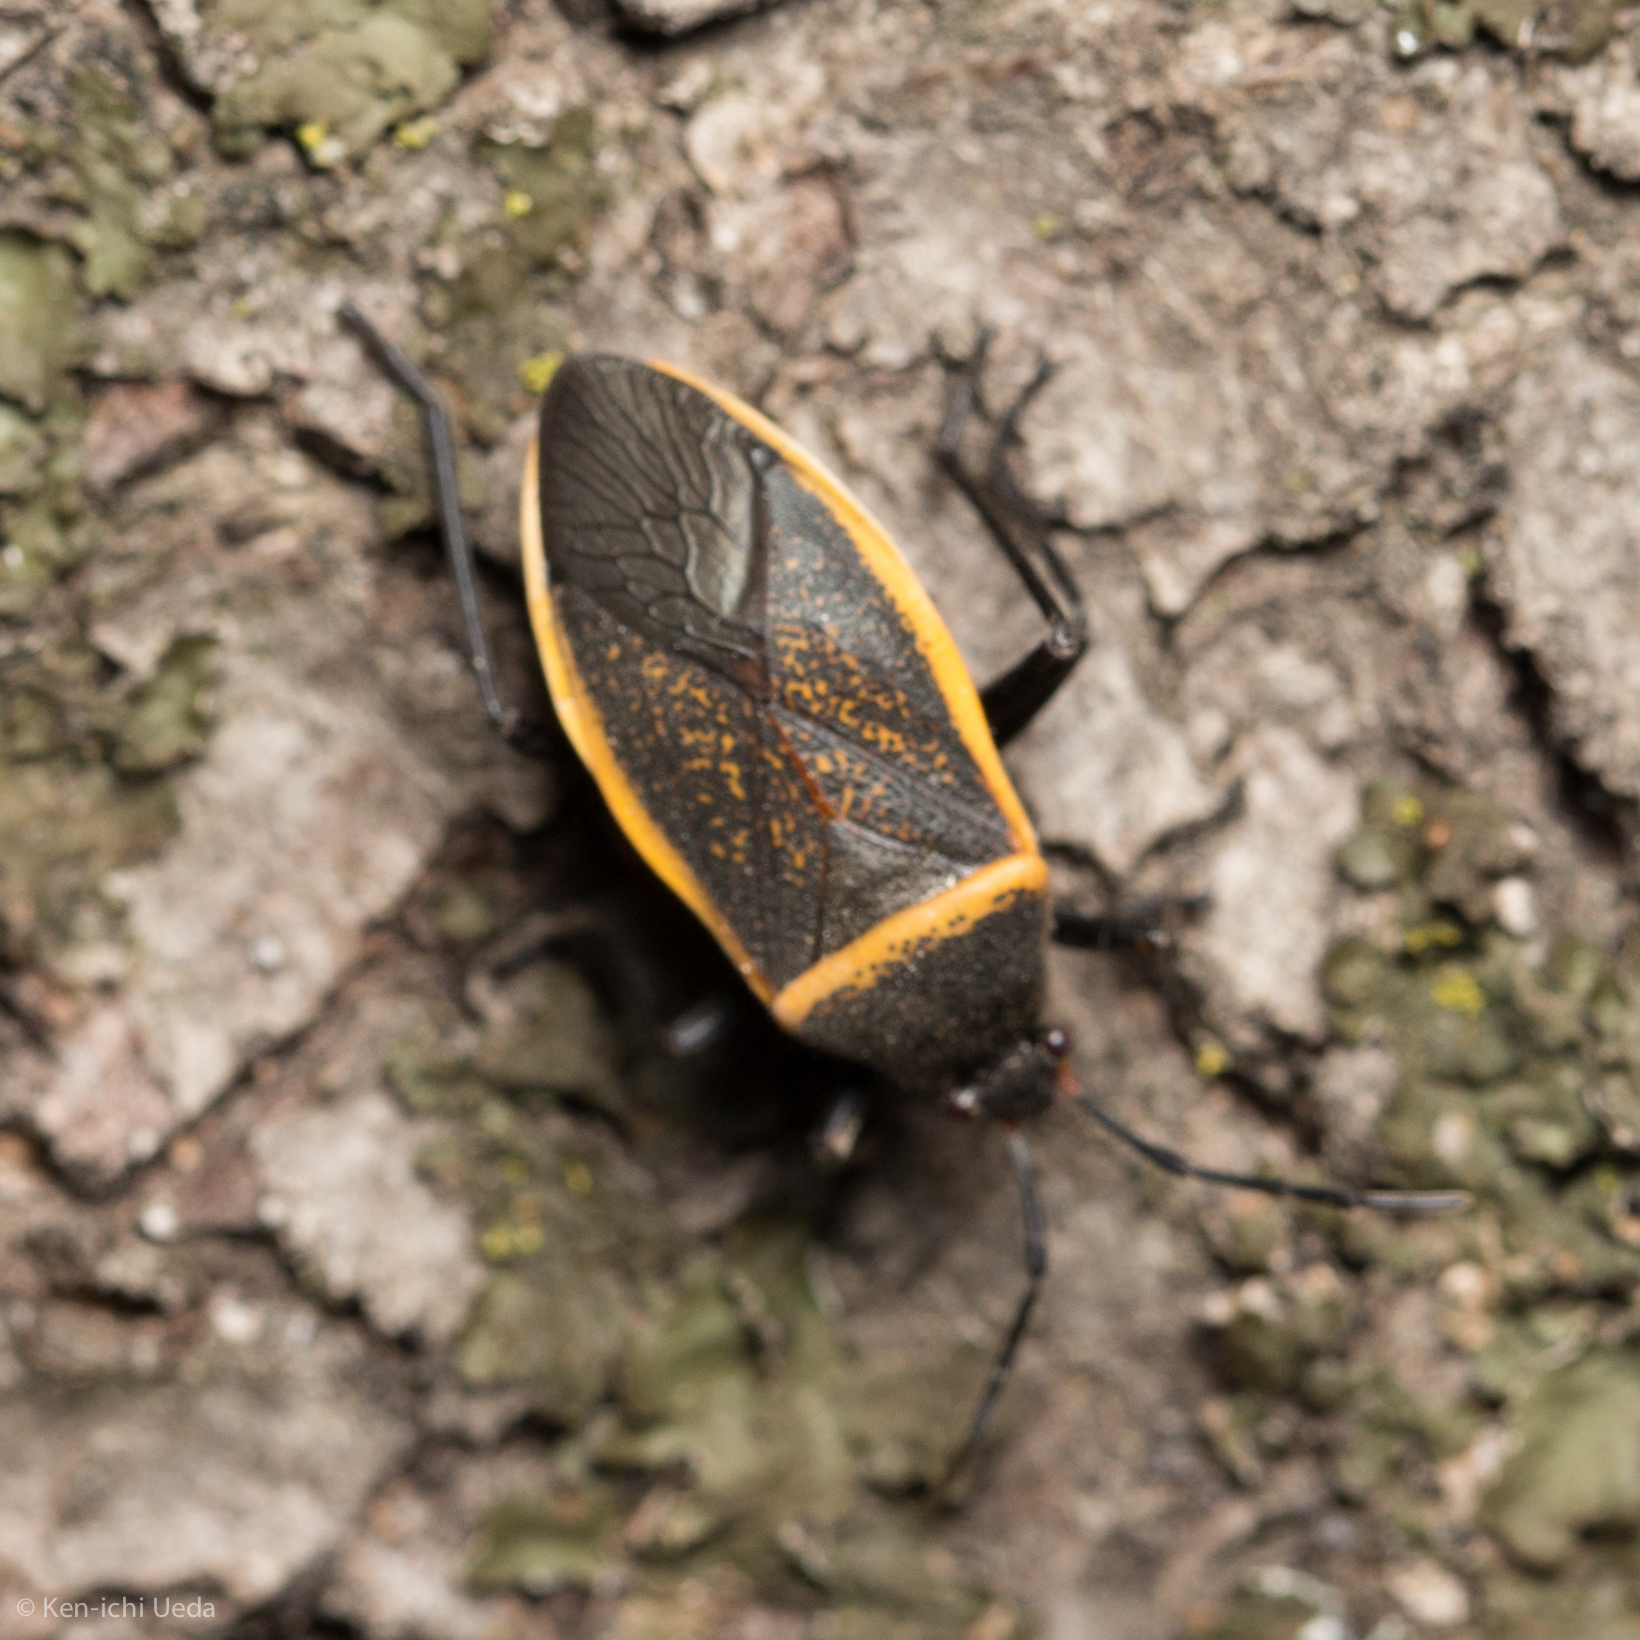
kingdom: Animalia
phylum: Arthropoda
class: Insecta
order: Hemiptera
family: Largidae
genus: Largus
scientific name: Largus californicus
